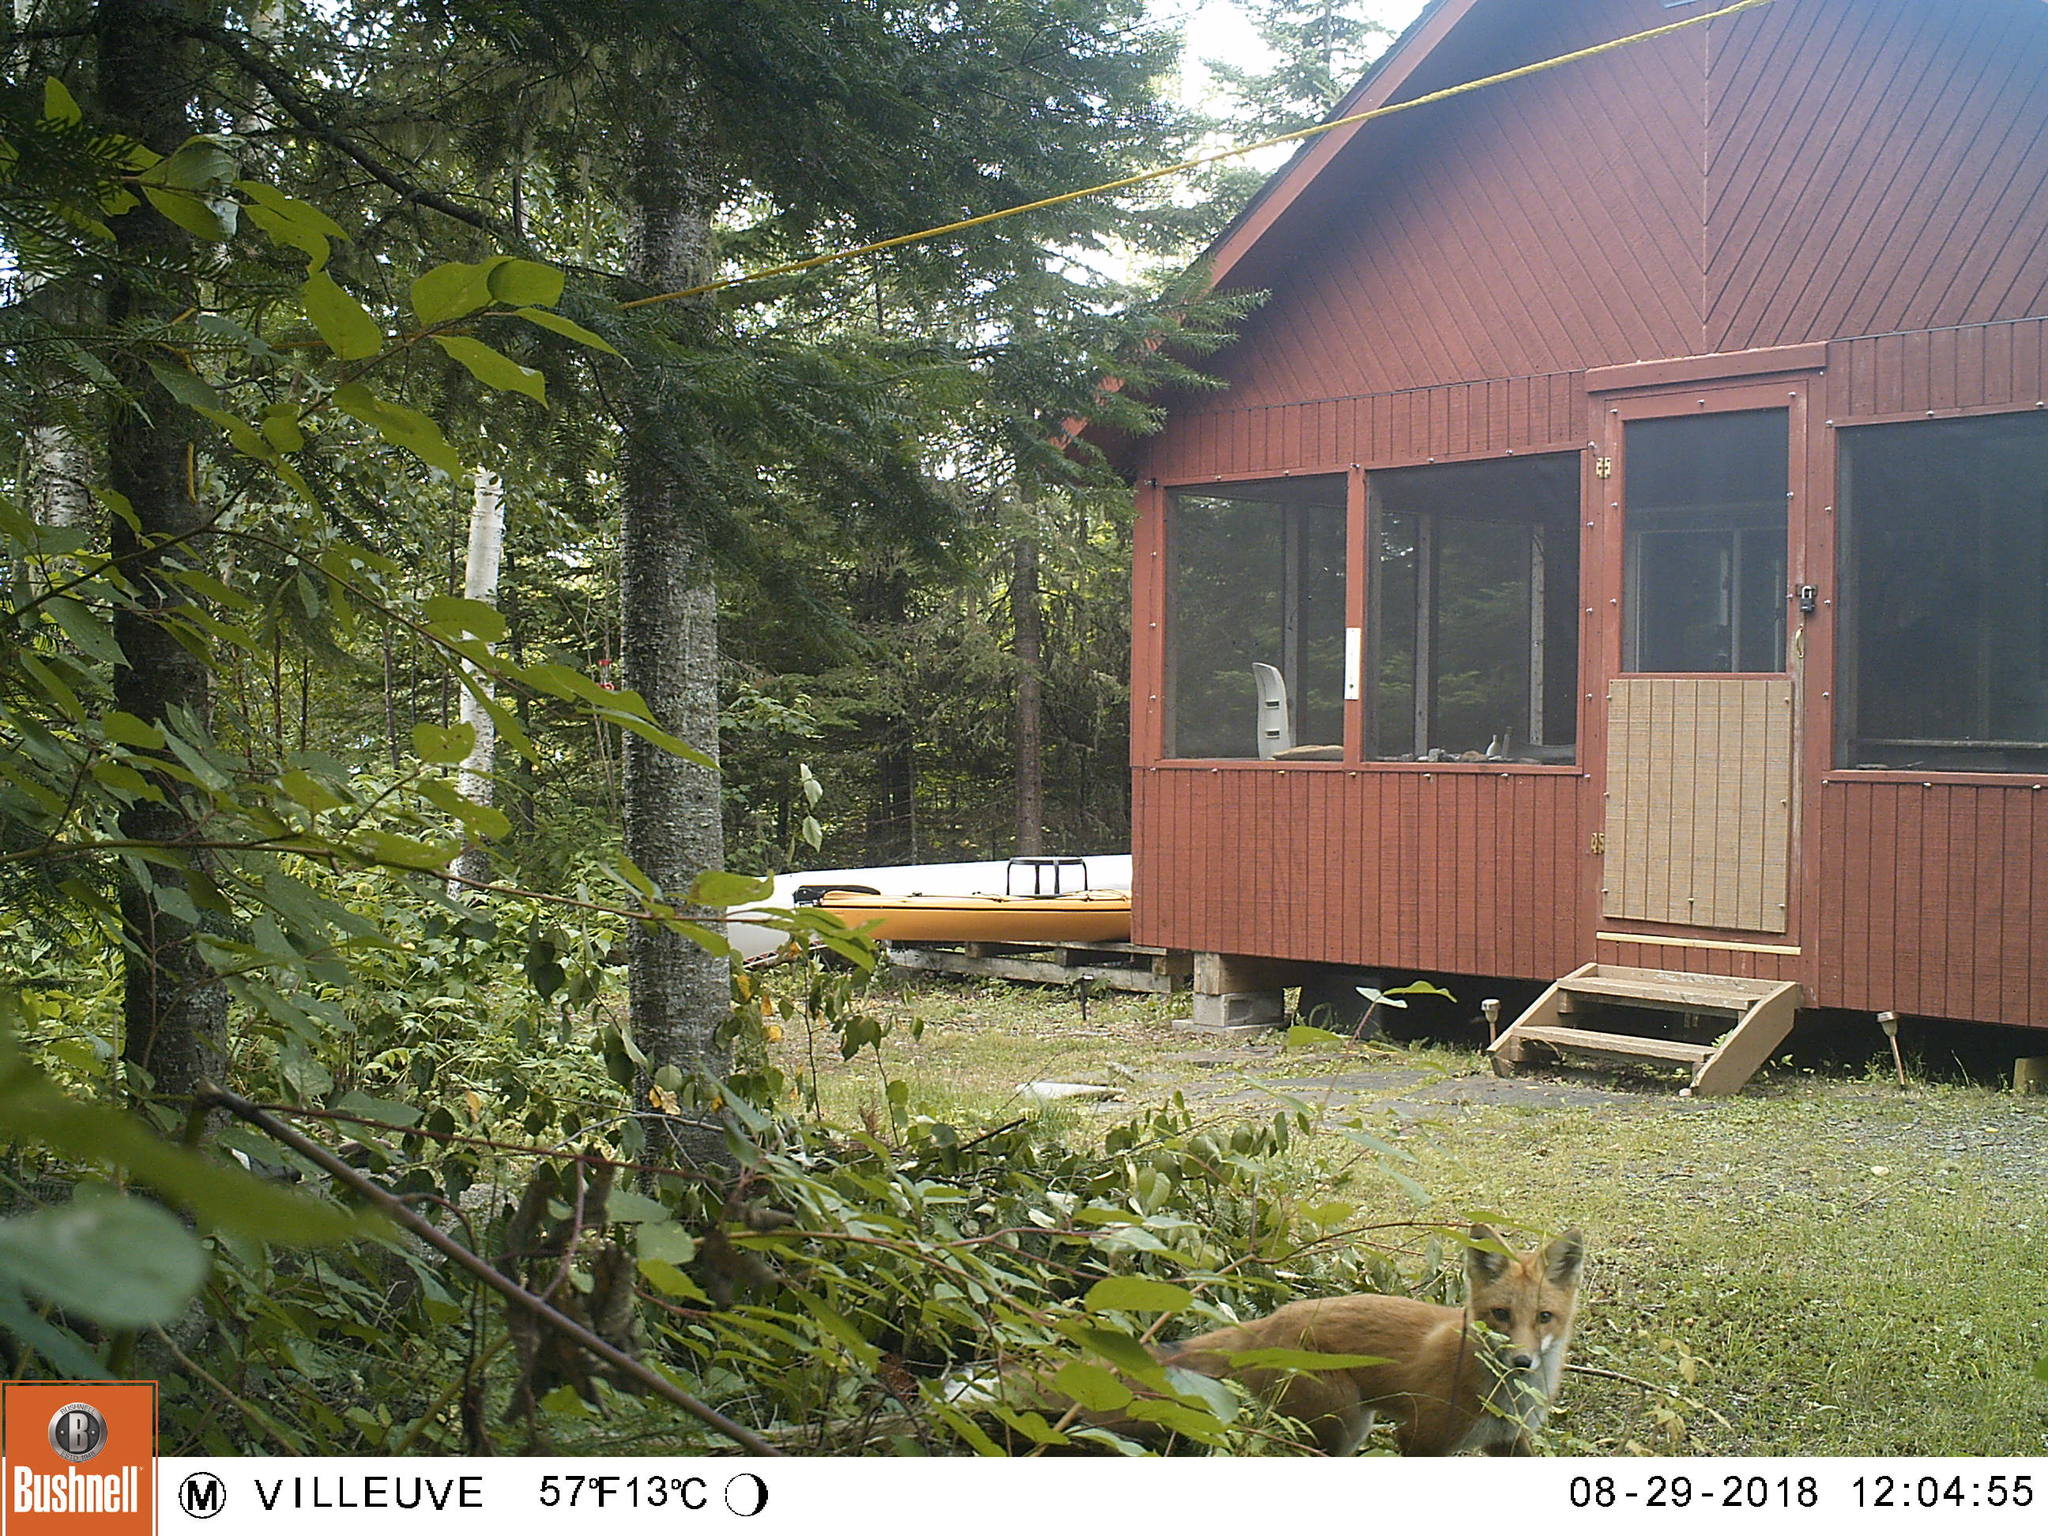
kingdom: Animalia
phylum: Chordata
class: Mammalia
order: Carnivora
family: Canidae
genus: Vulpes
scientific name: Vulpes vulpes
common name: Red fox
